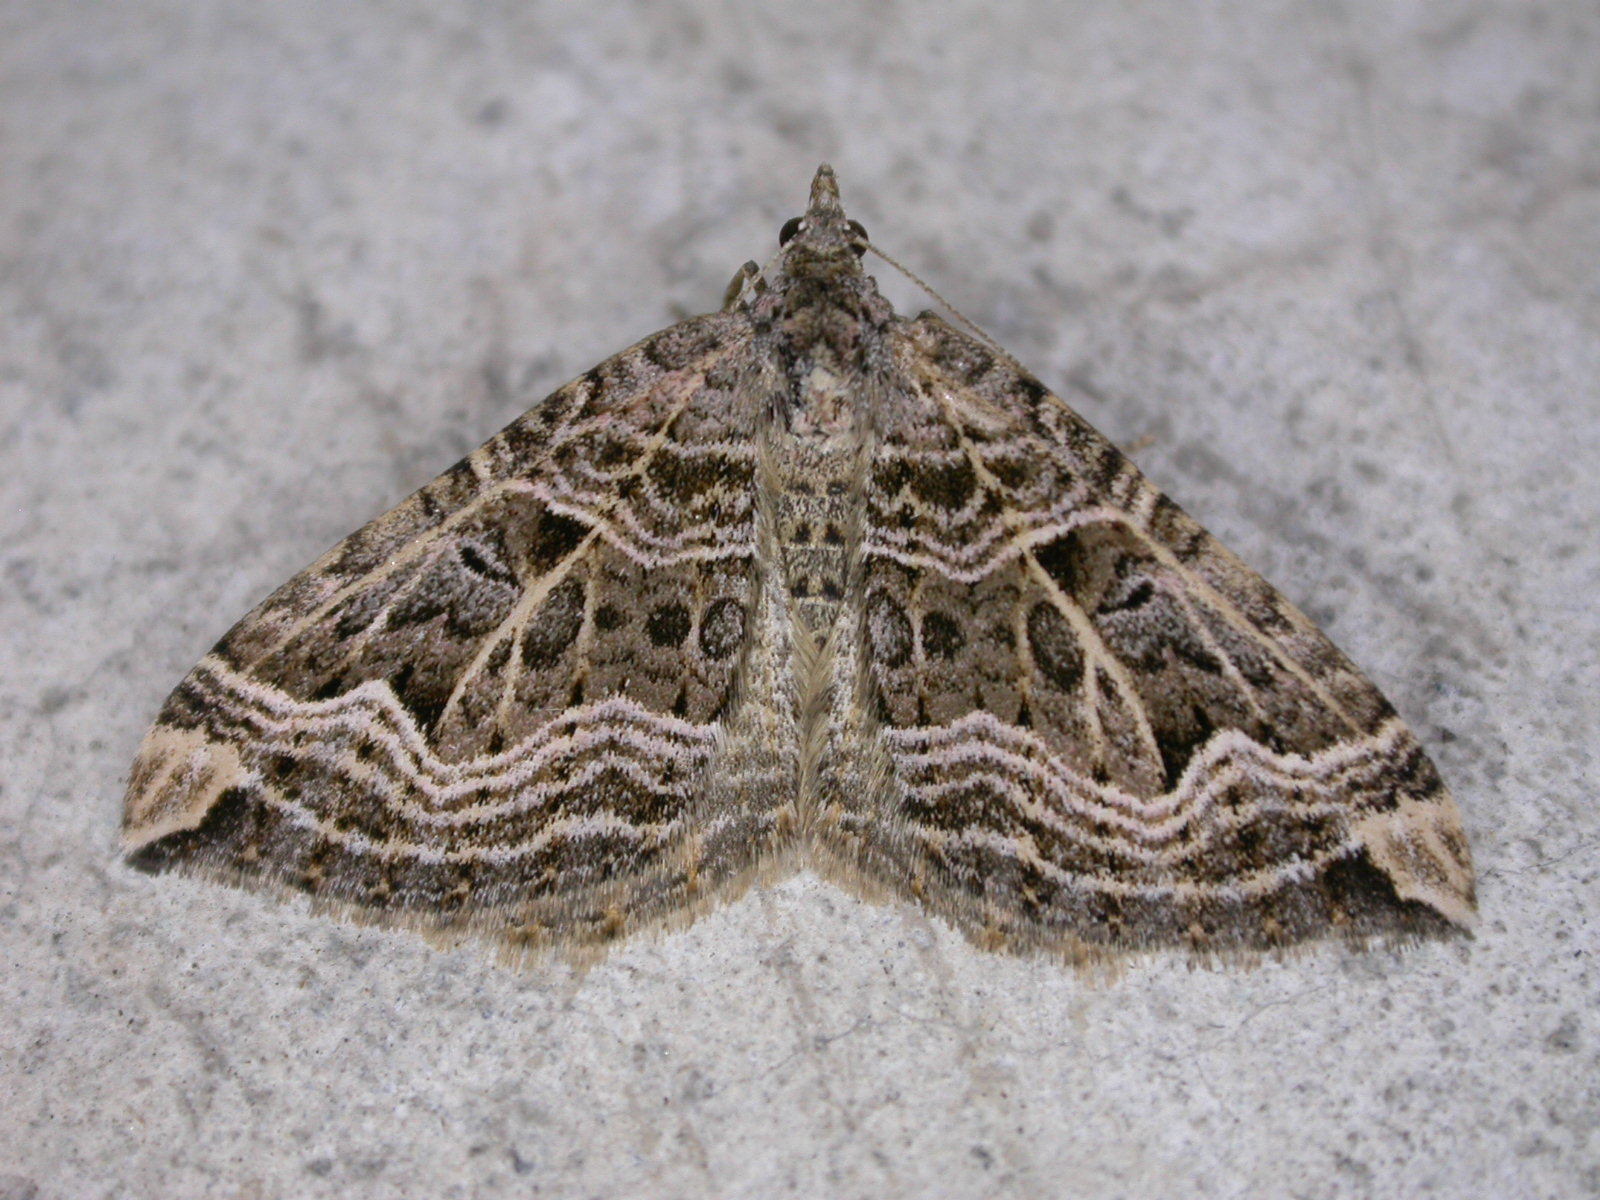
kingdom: Animalia
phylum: Arthropoda
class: Insecta
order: Lepidoptera
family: Geometridae
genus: Xanthorhoe
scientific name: Xanthorhoe semifissata
